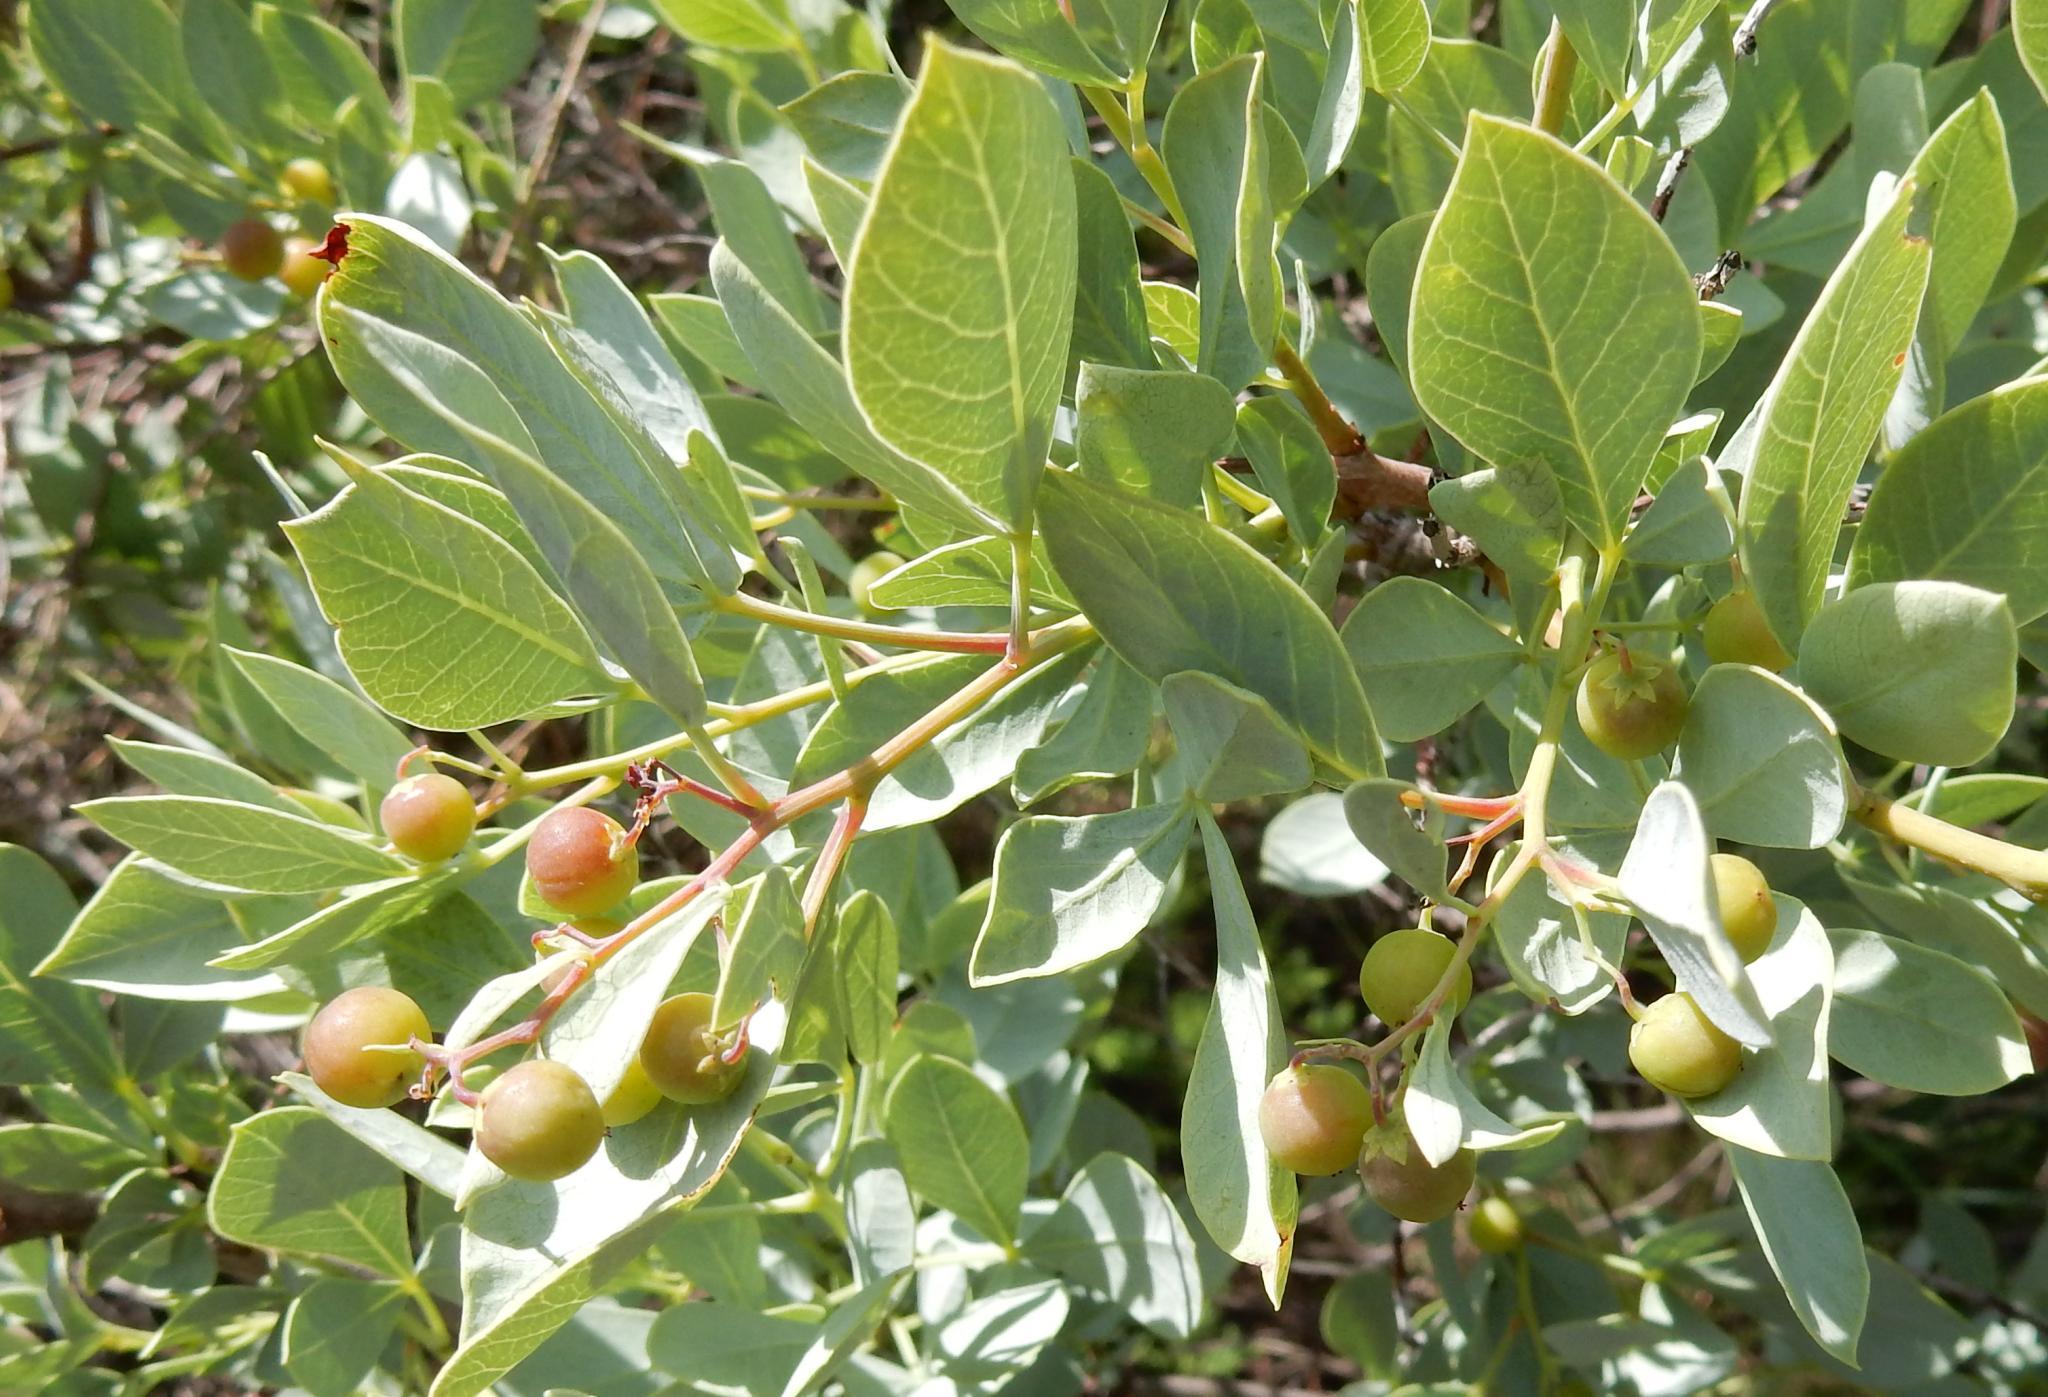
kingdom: Plantae
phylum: Tracheophyta
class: Magnoliopsida
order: Sapindales
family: Anacardiaceae
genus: Searsia
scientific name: Searsia zeyheri
